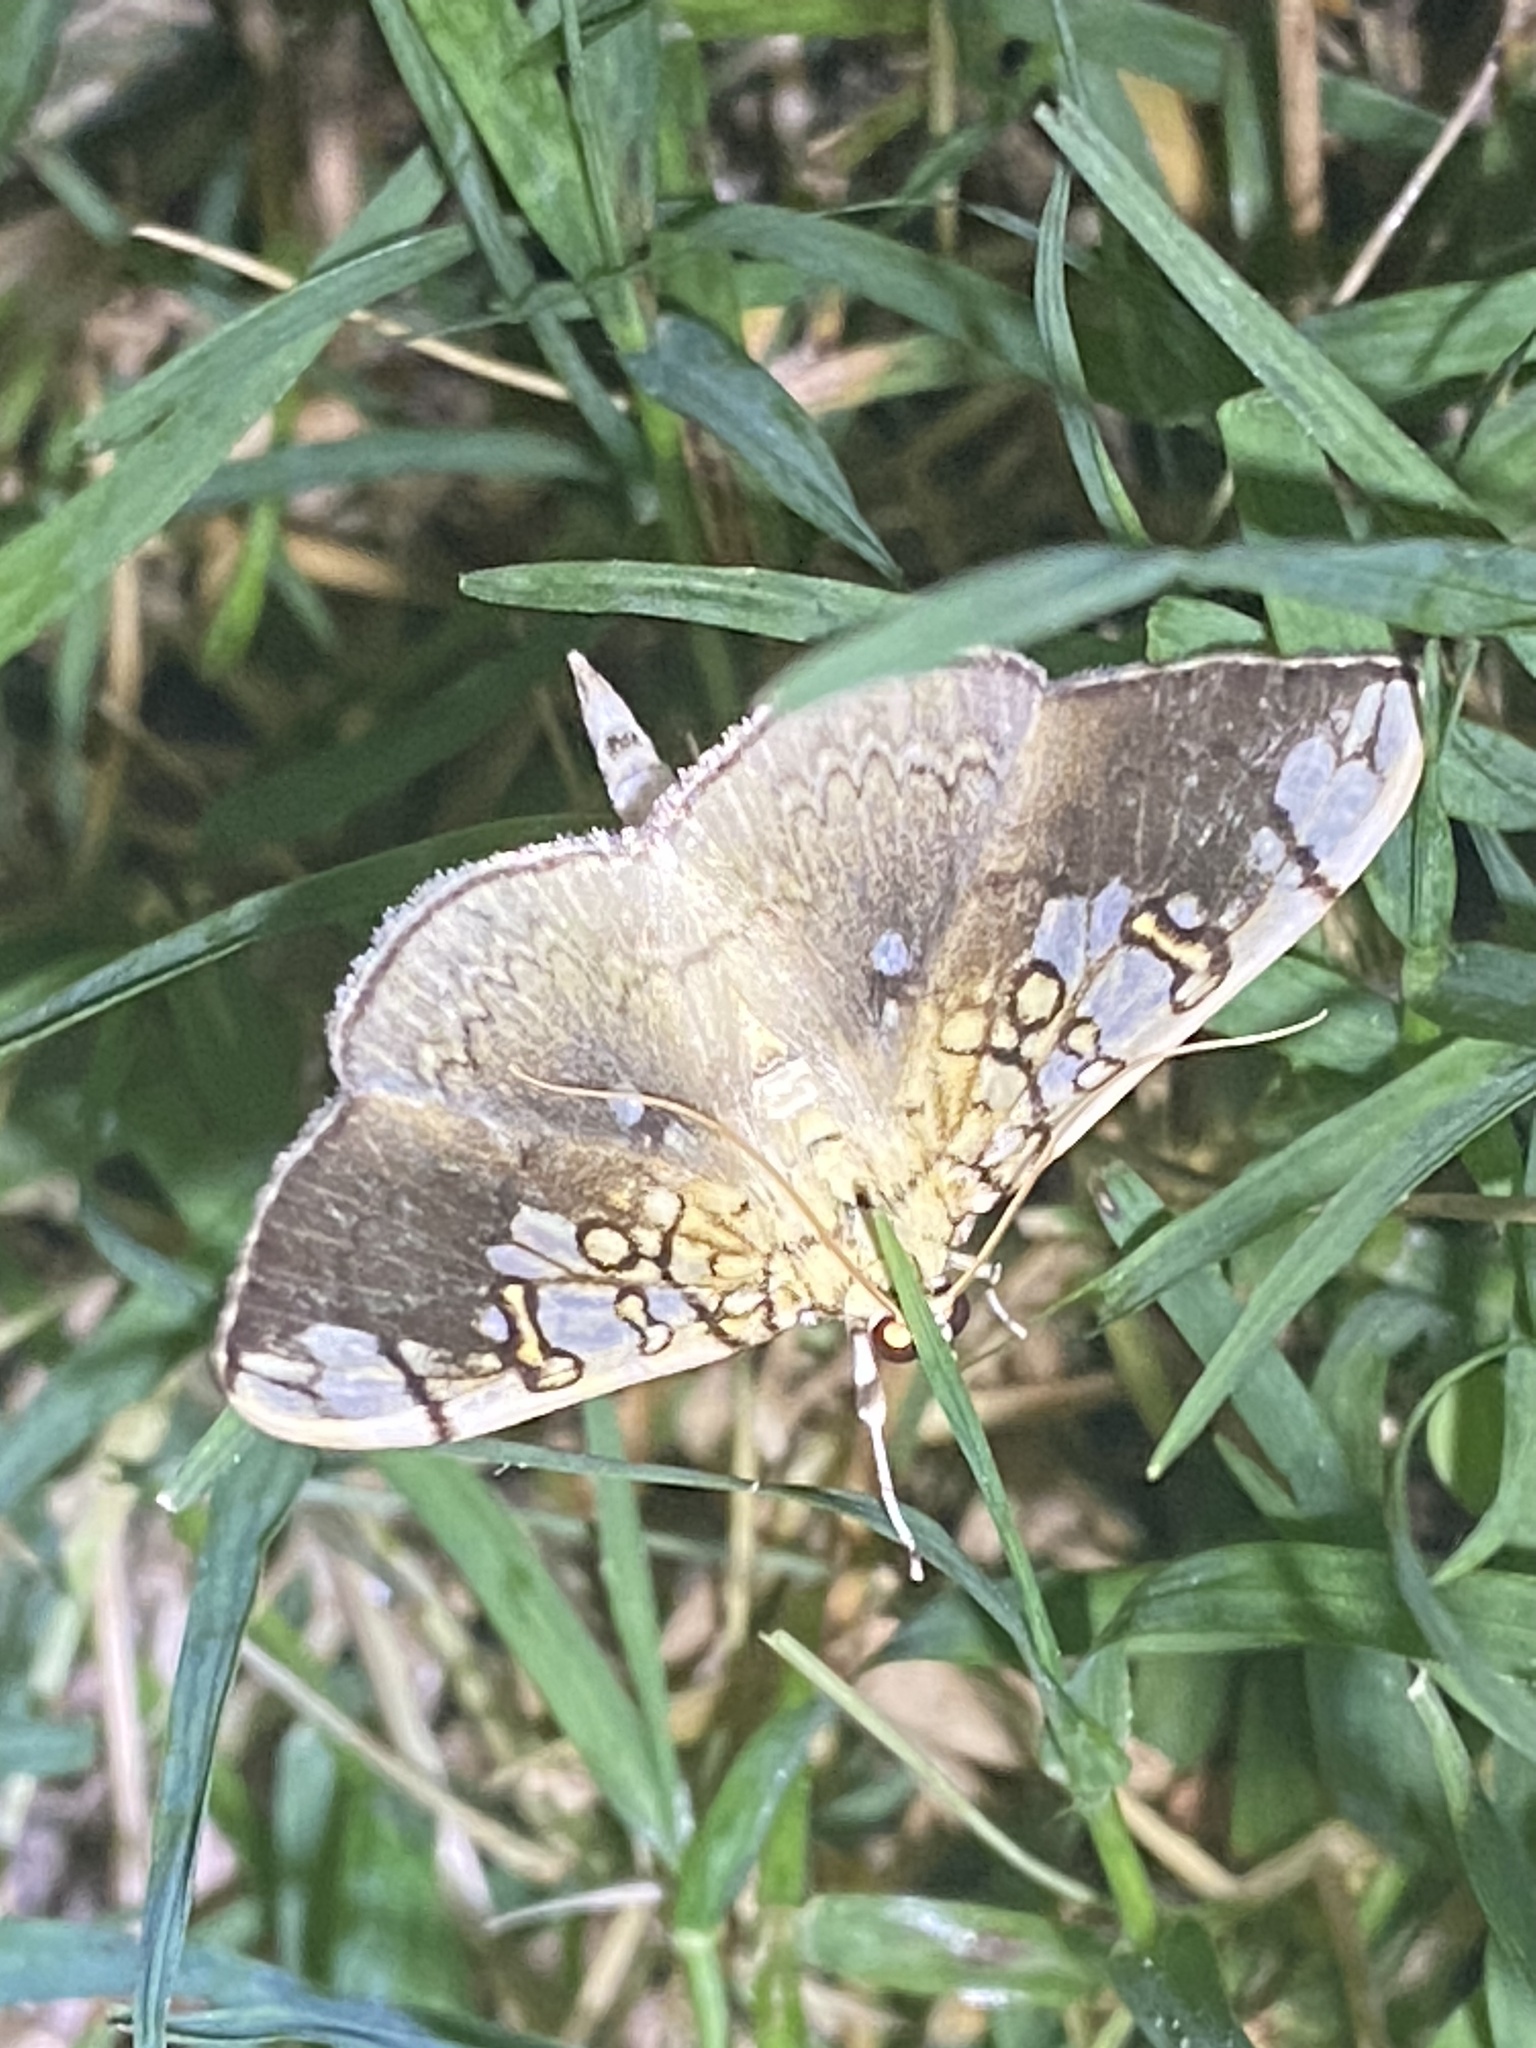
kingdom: Animalia
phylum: Arthropoda
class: Insecta
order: Lepidoptera
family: Crambidae
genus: Pantographa
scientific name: Pantographa limata
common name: Basswood leafroller moth
